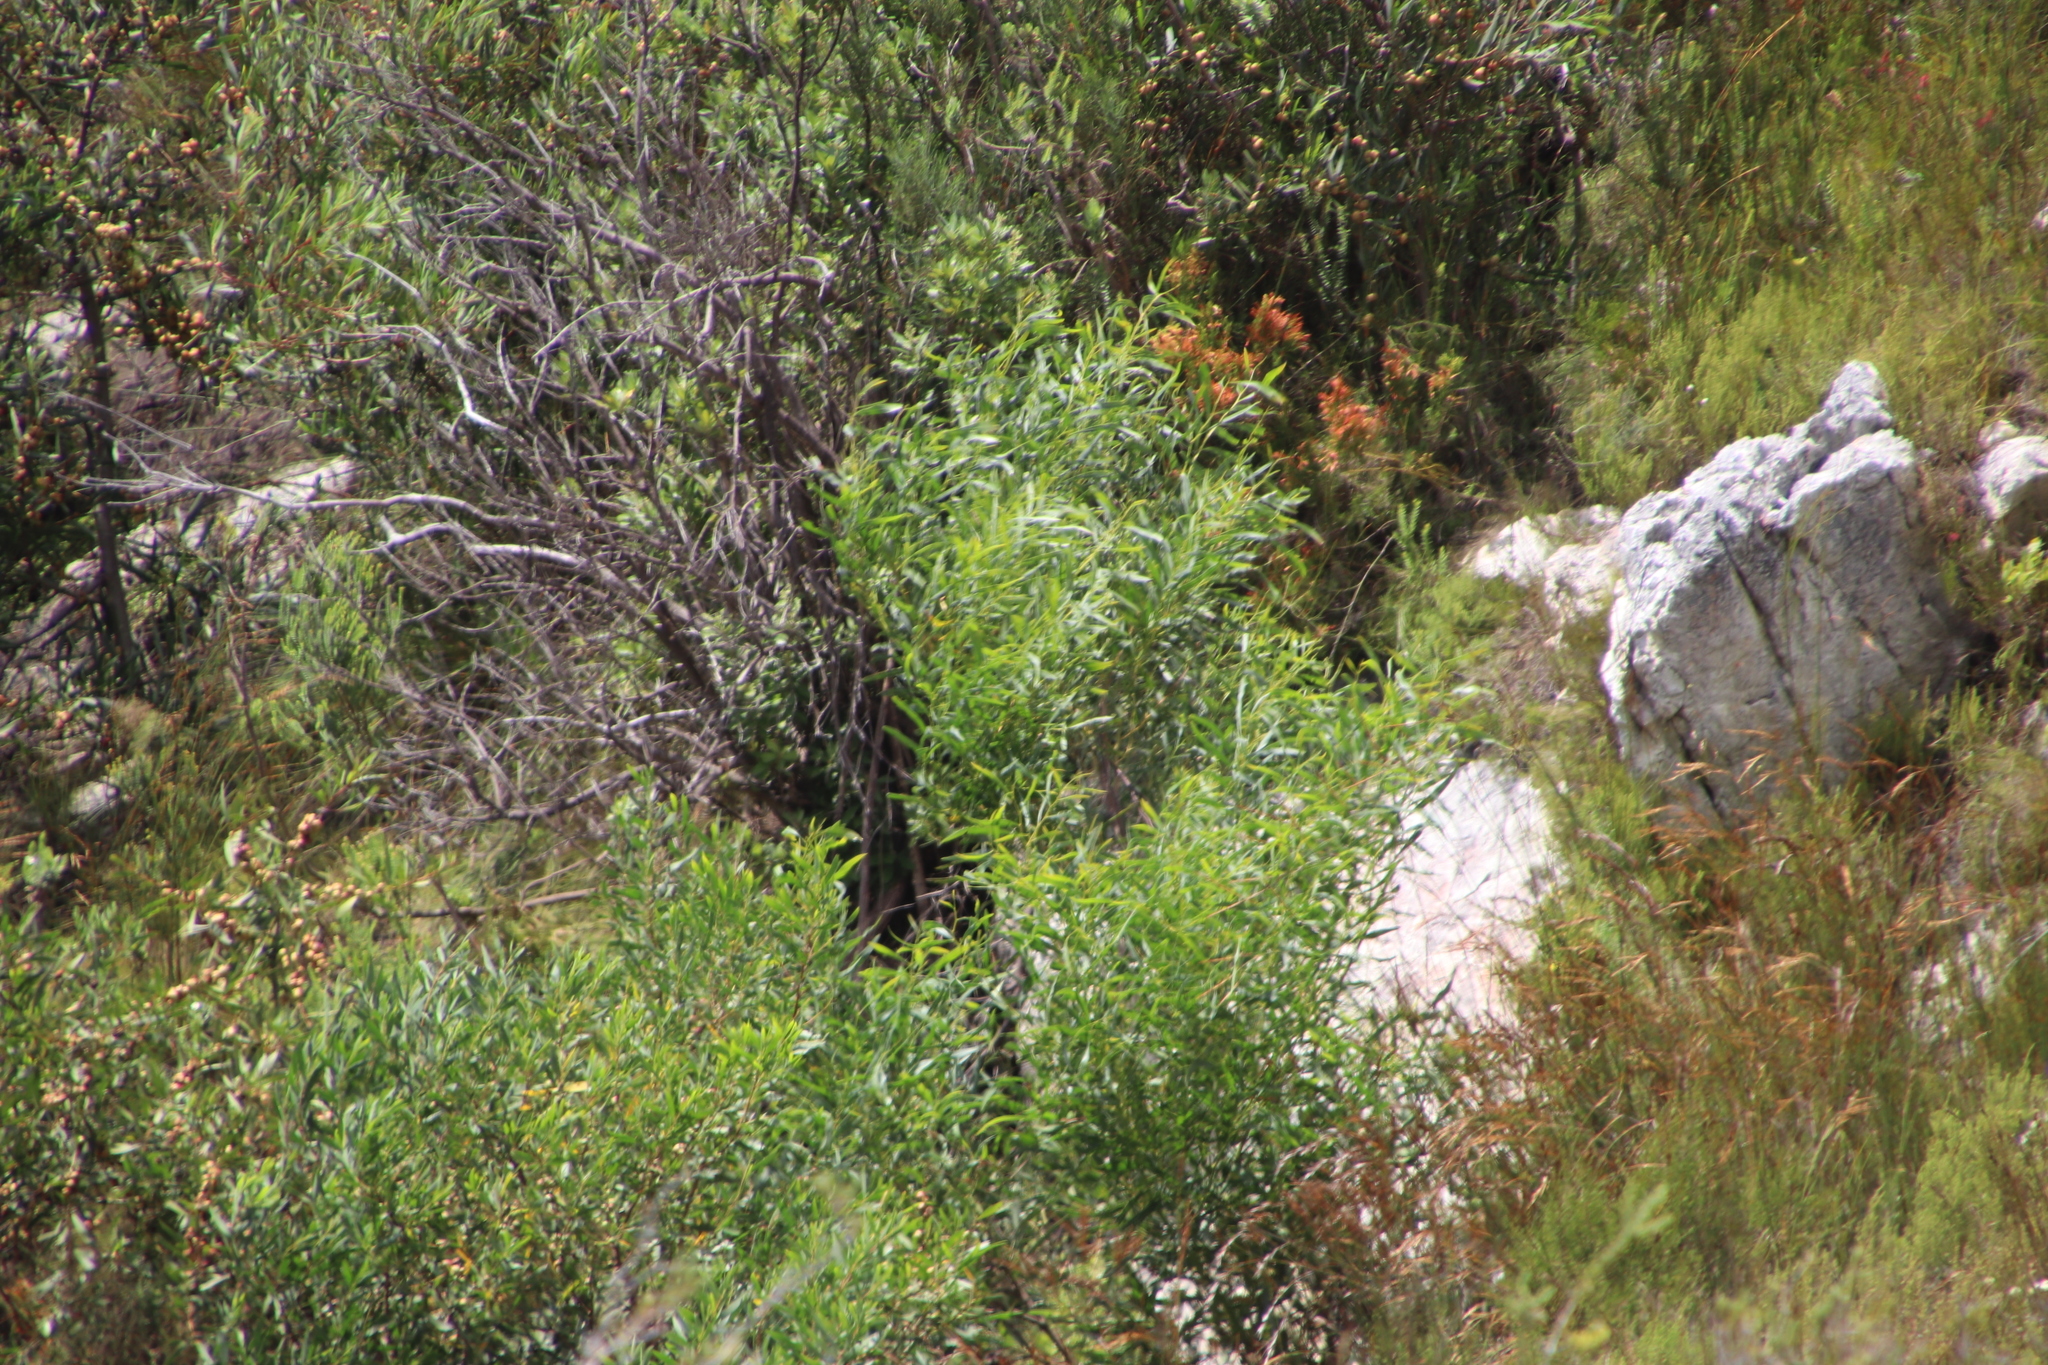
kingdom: Plantae
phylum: Tracheophyta
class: Magnoliopsida
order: Proteales
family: Proteaceae
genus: Leucadendron
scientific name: Leucadendron salicifolium
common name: Common stream conebush
